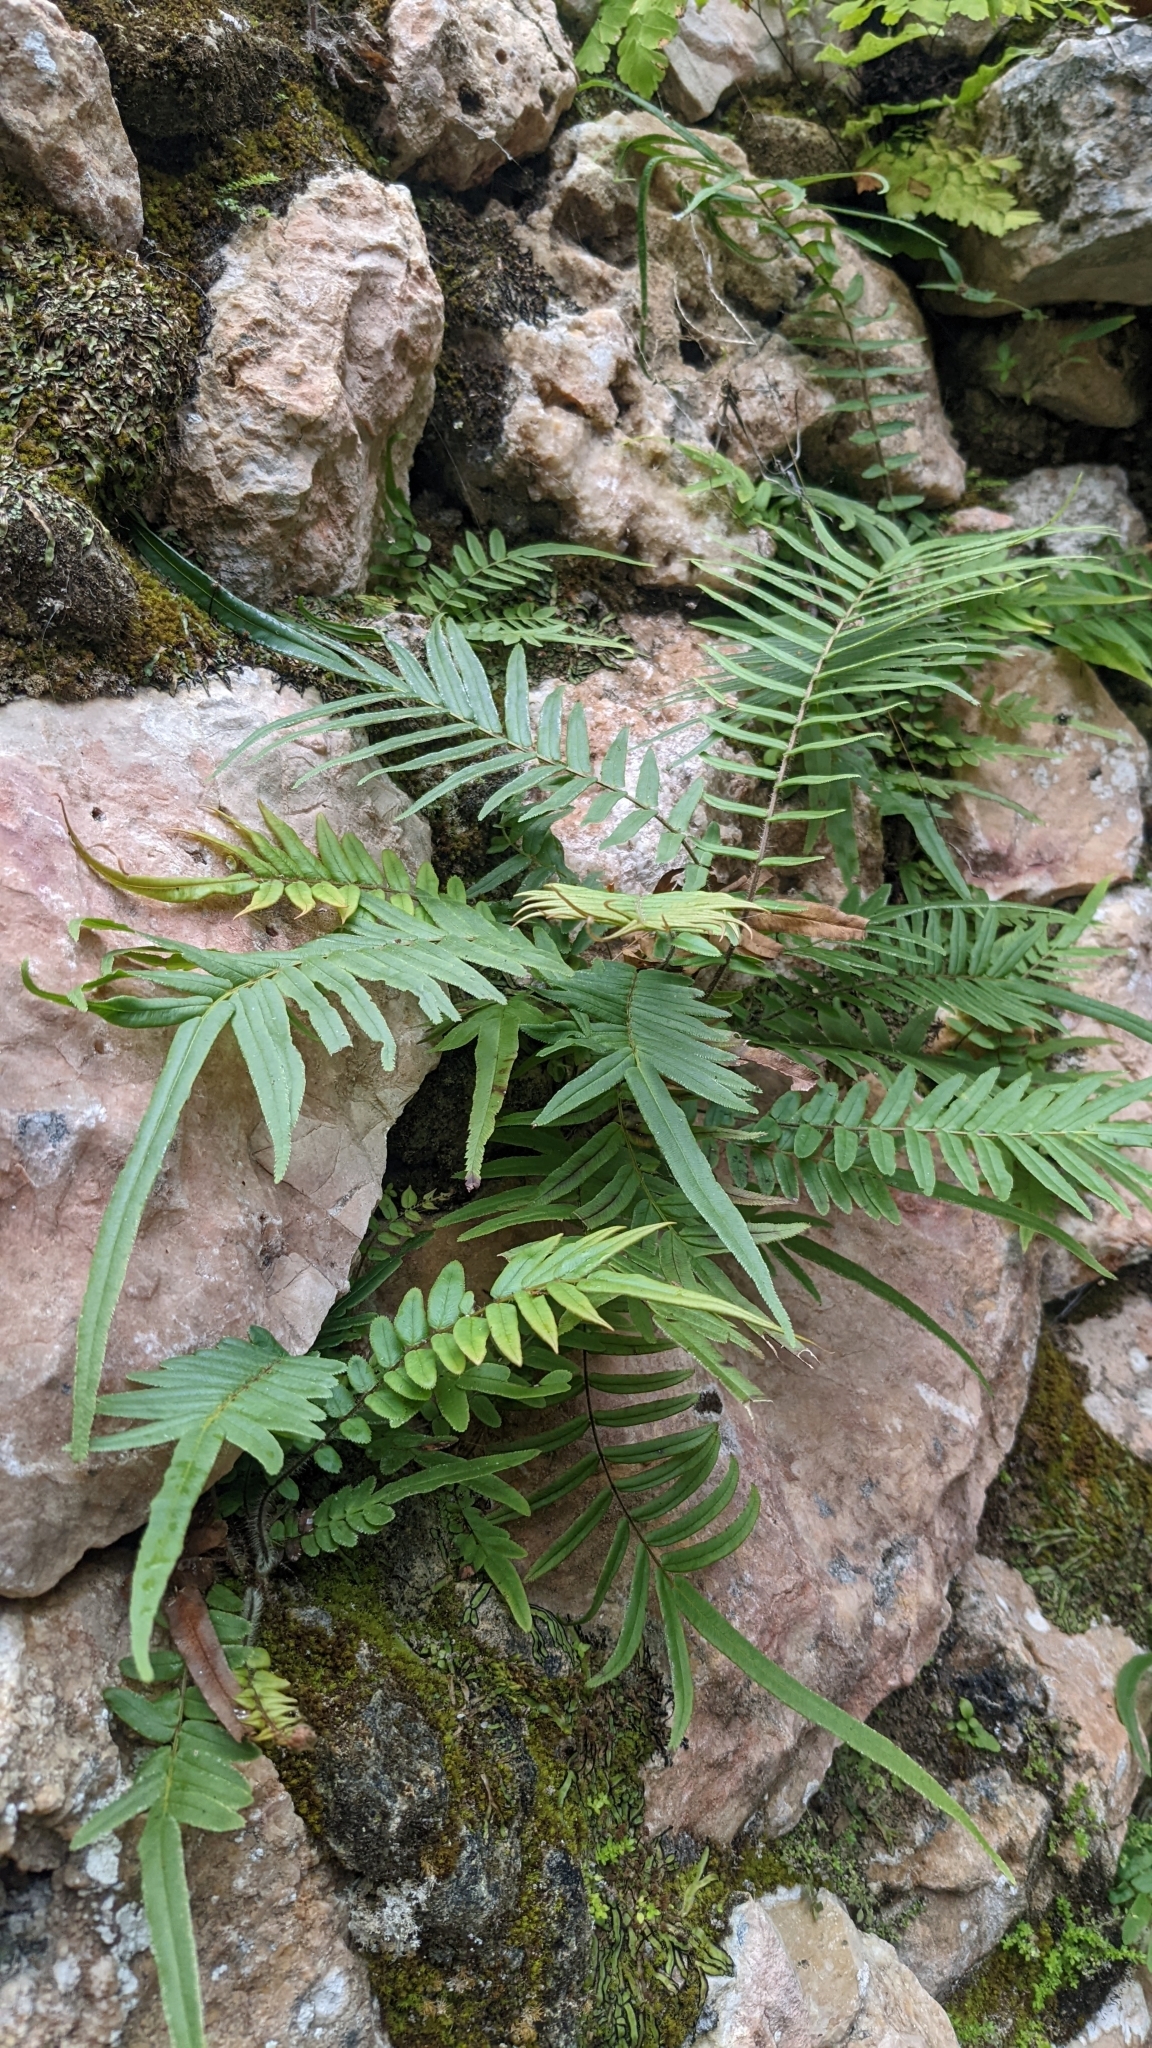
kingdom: Plantae
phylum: Tracheophyta
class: Polypodiopsida
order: Polypodiales
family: Pteridaceae
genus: Pteris
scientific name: Pteris vittata
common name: Ladder brake
